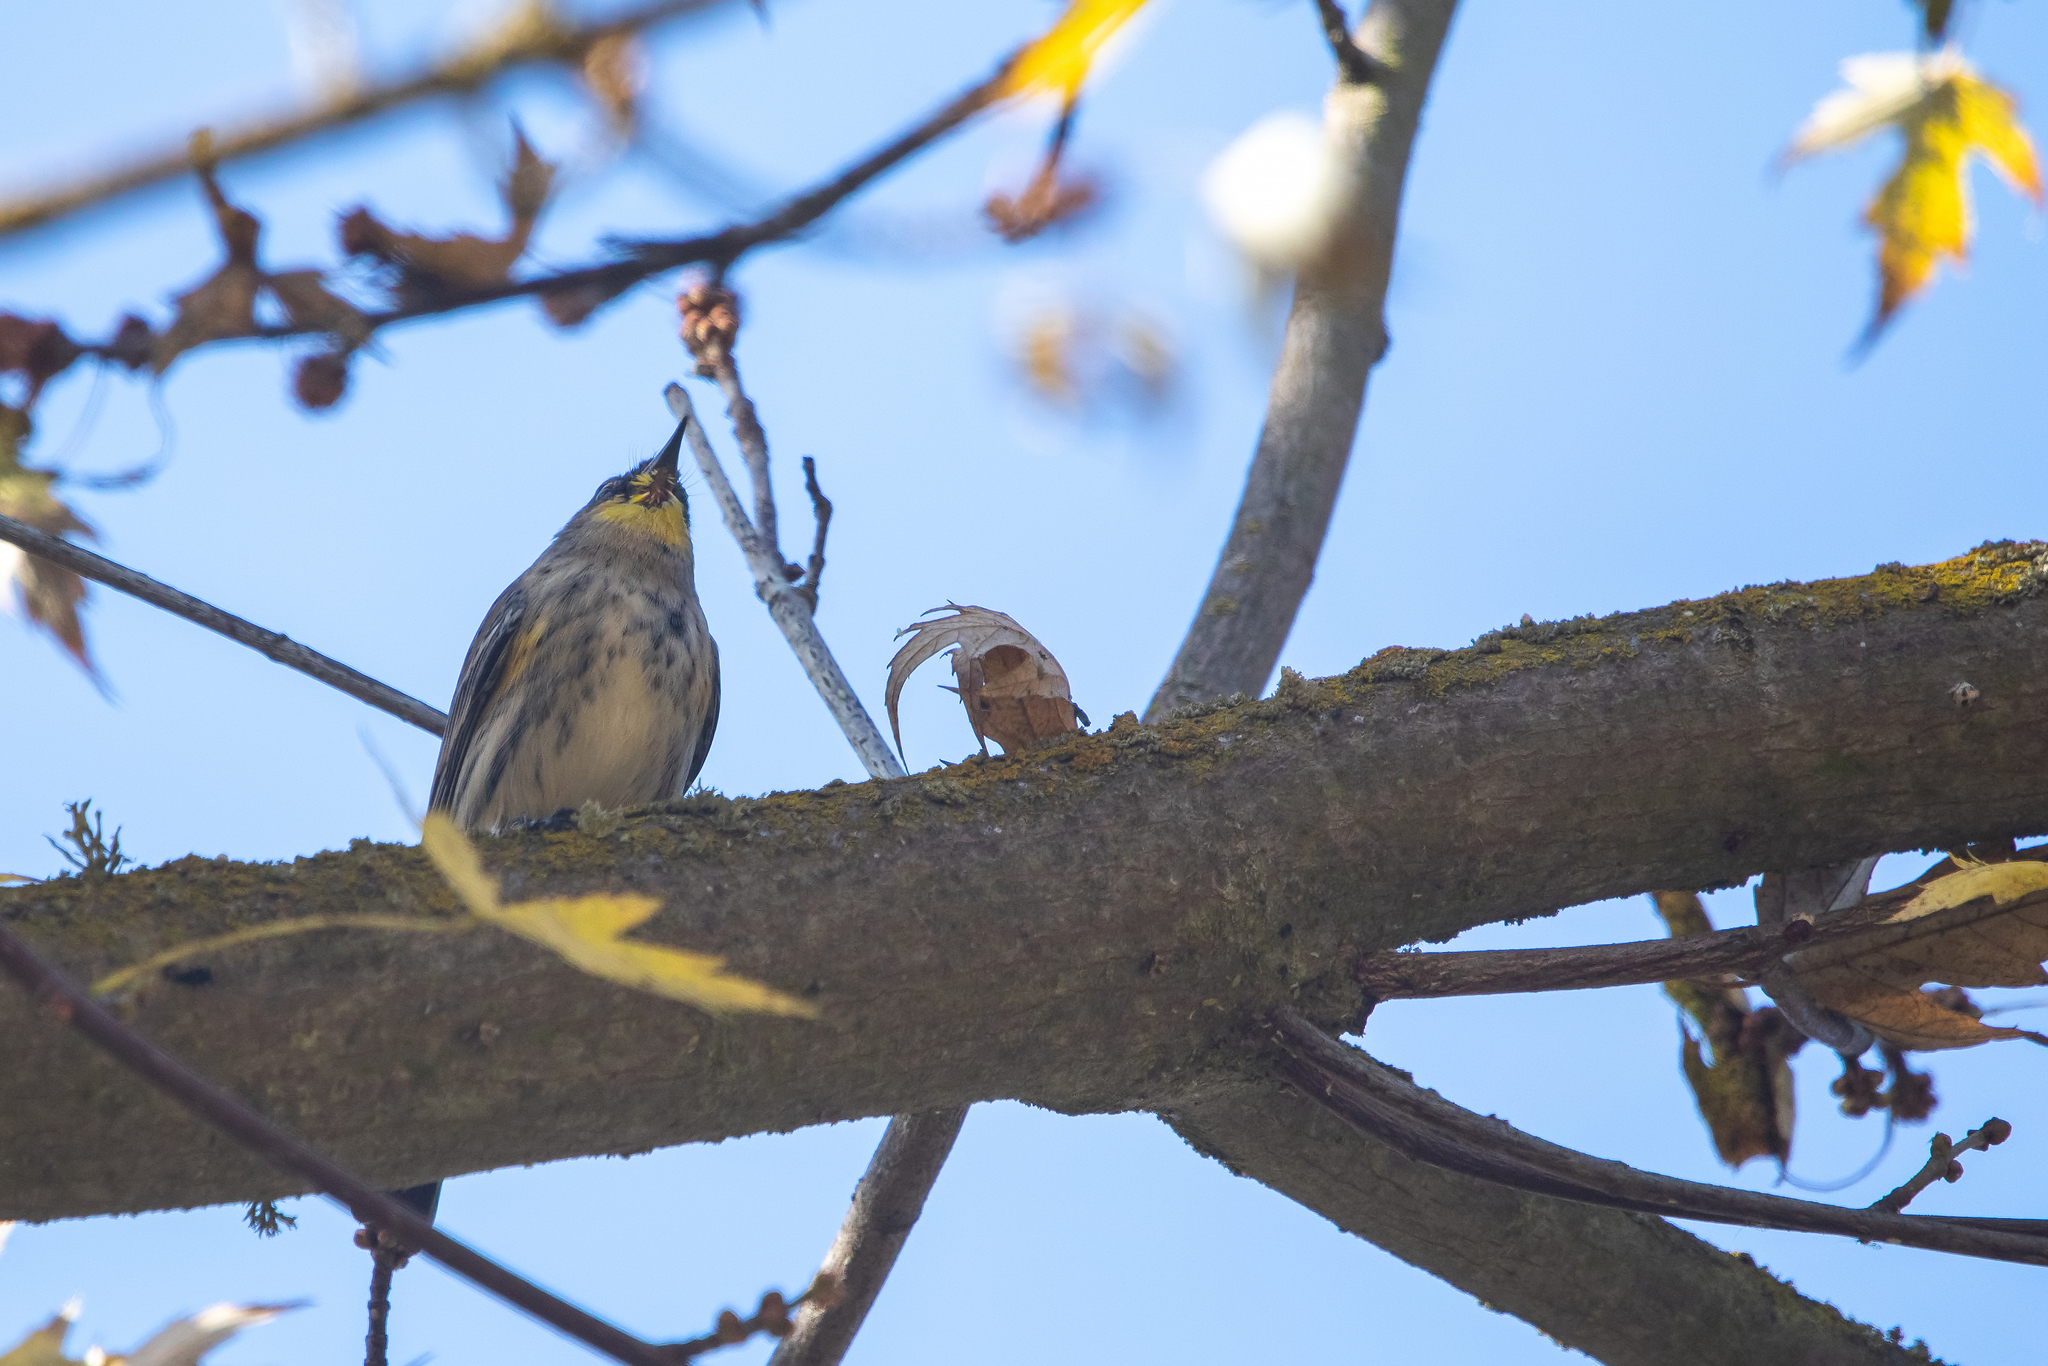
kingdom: Animalia
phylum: Chordata
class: Aves
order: Passeriformes
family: Parulidae
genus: Setophaga
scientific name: Setophaga coronata
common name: Myrtle warbler
